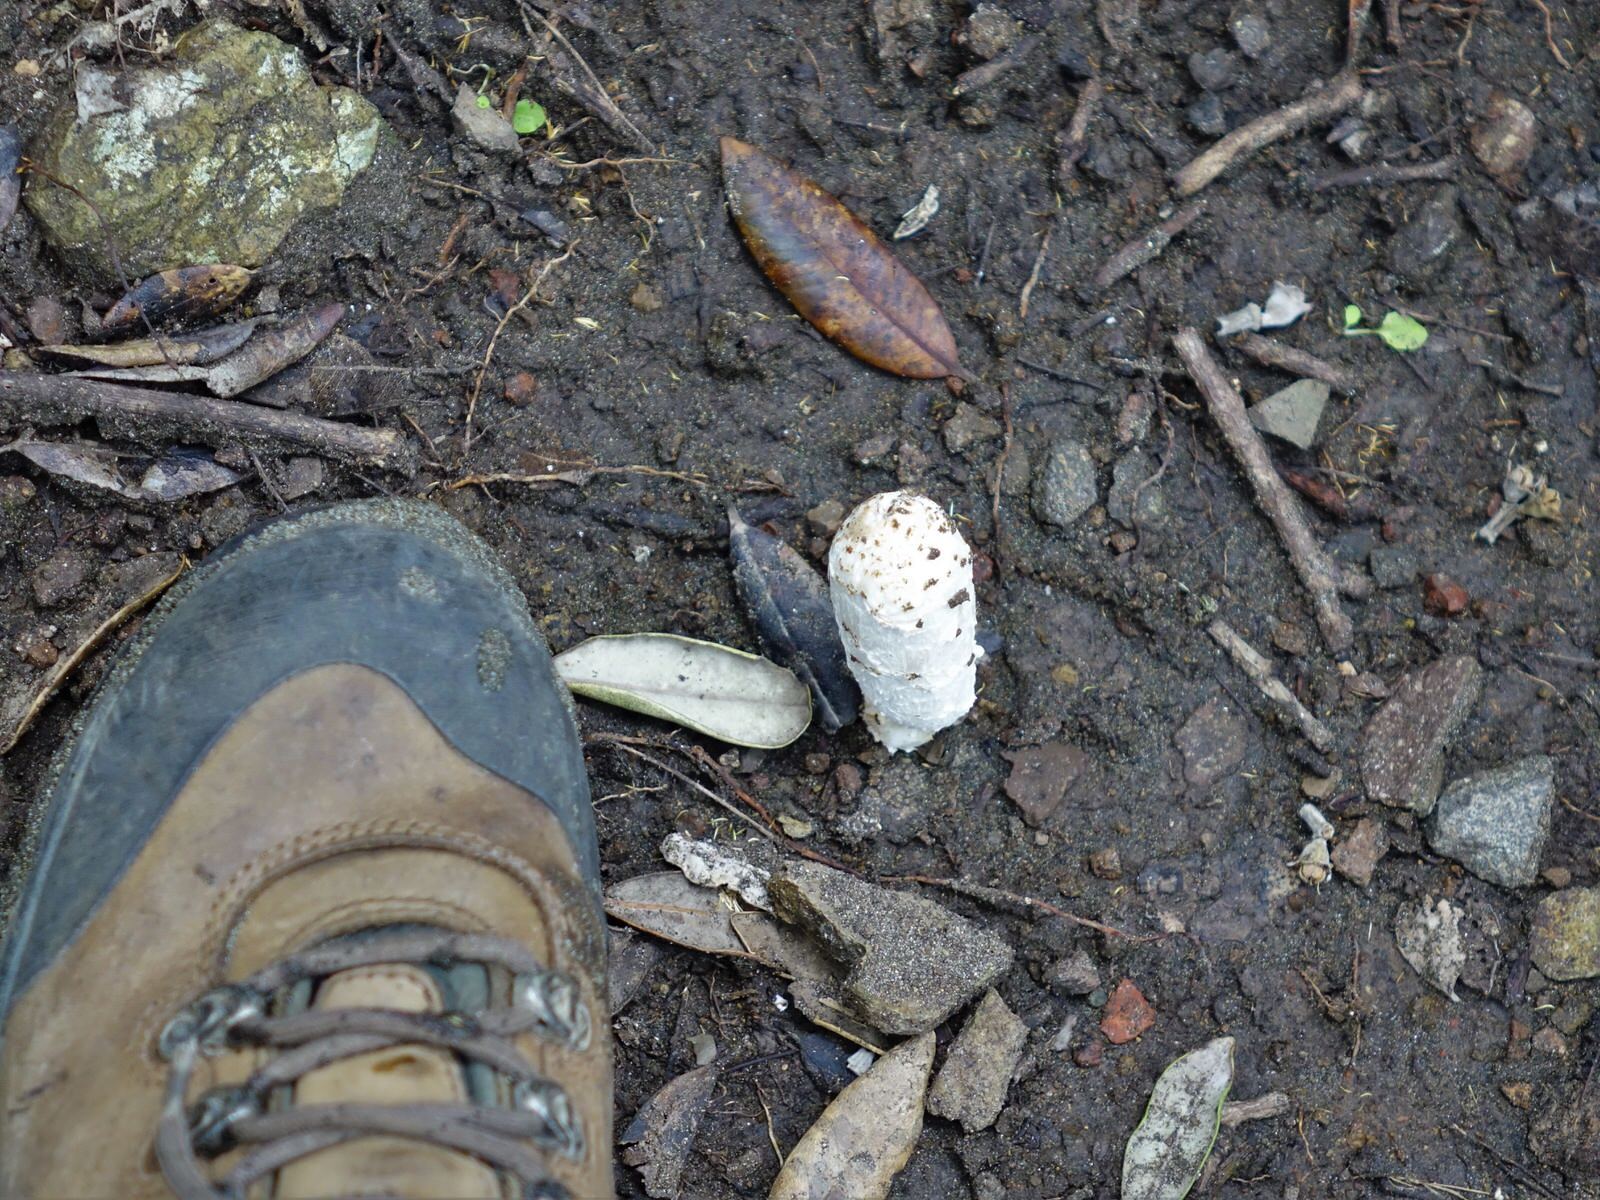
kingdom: Fungi
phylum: Basidiomycota
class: Agaricomycetes
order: Agaricales
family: Agaricaceae
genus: Coprinus
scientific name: Coprinus comatus
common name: Lawyer's wig
